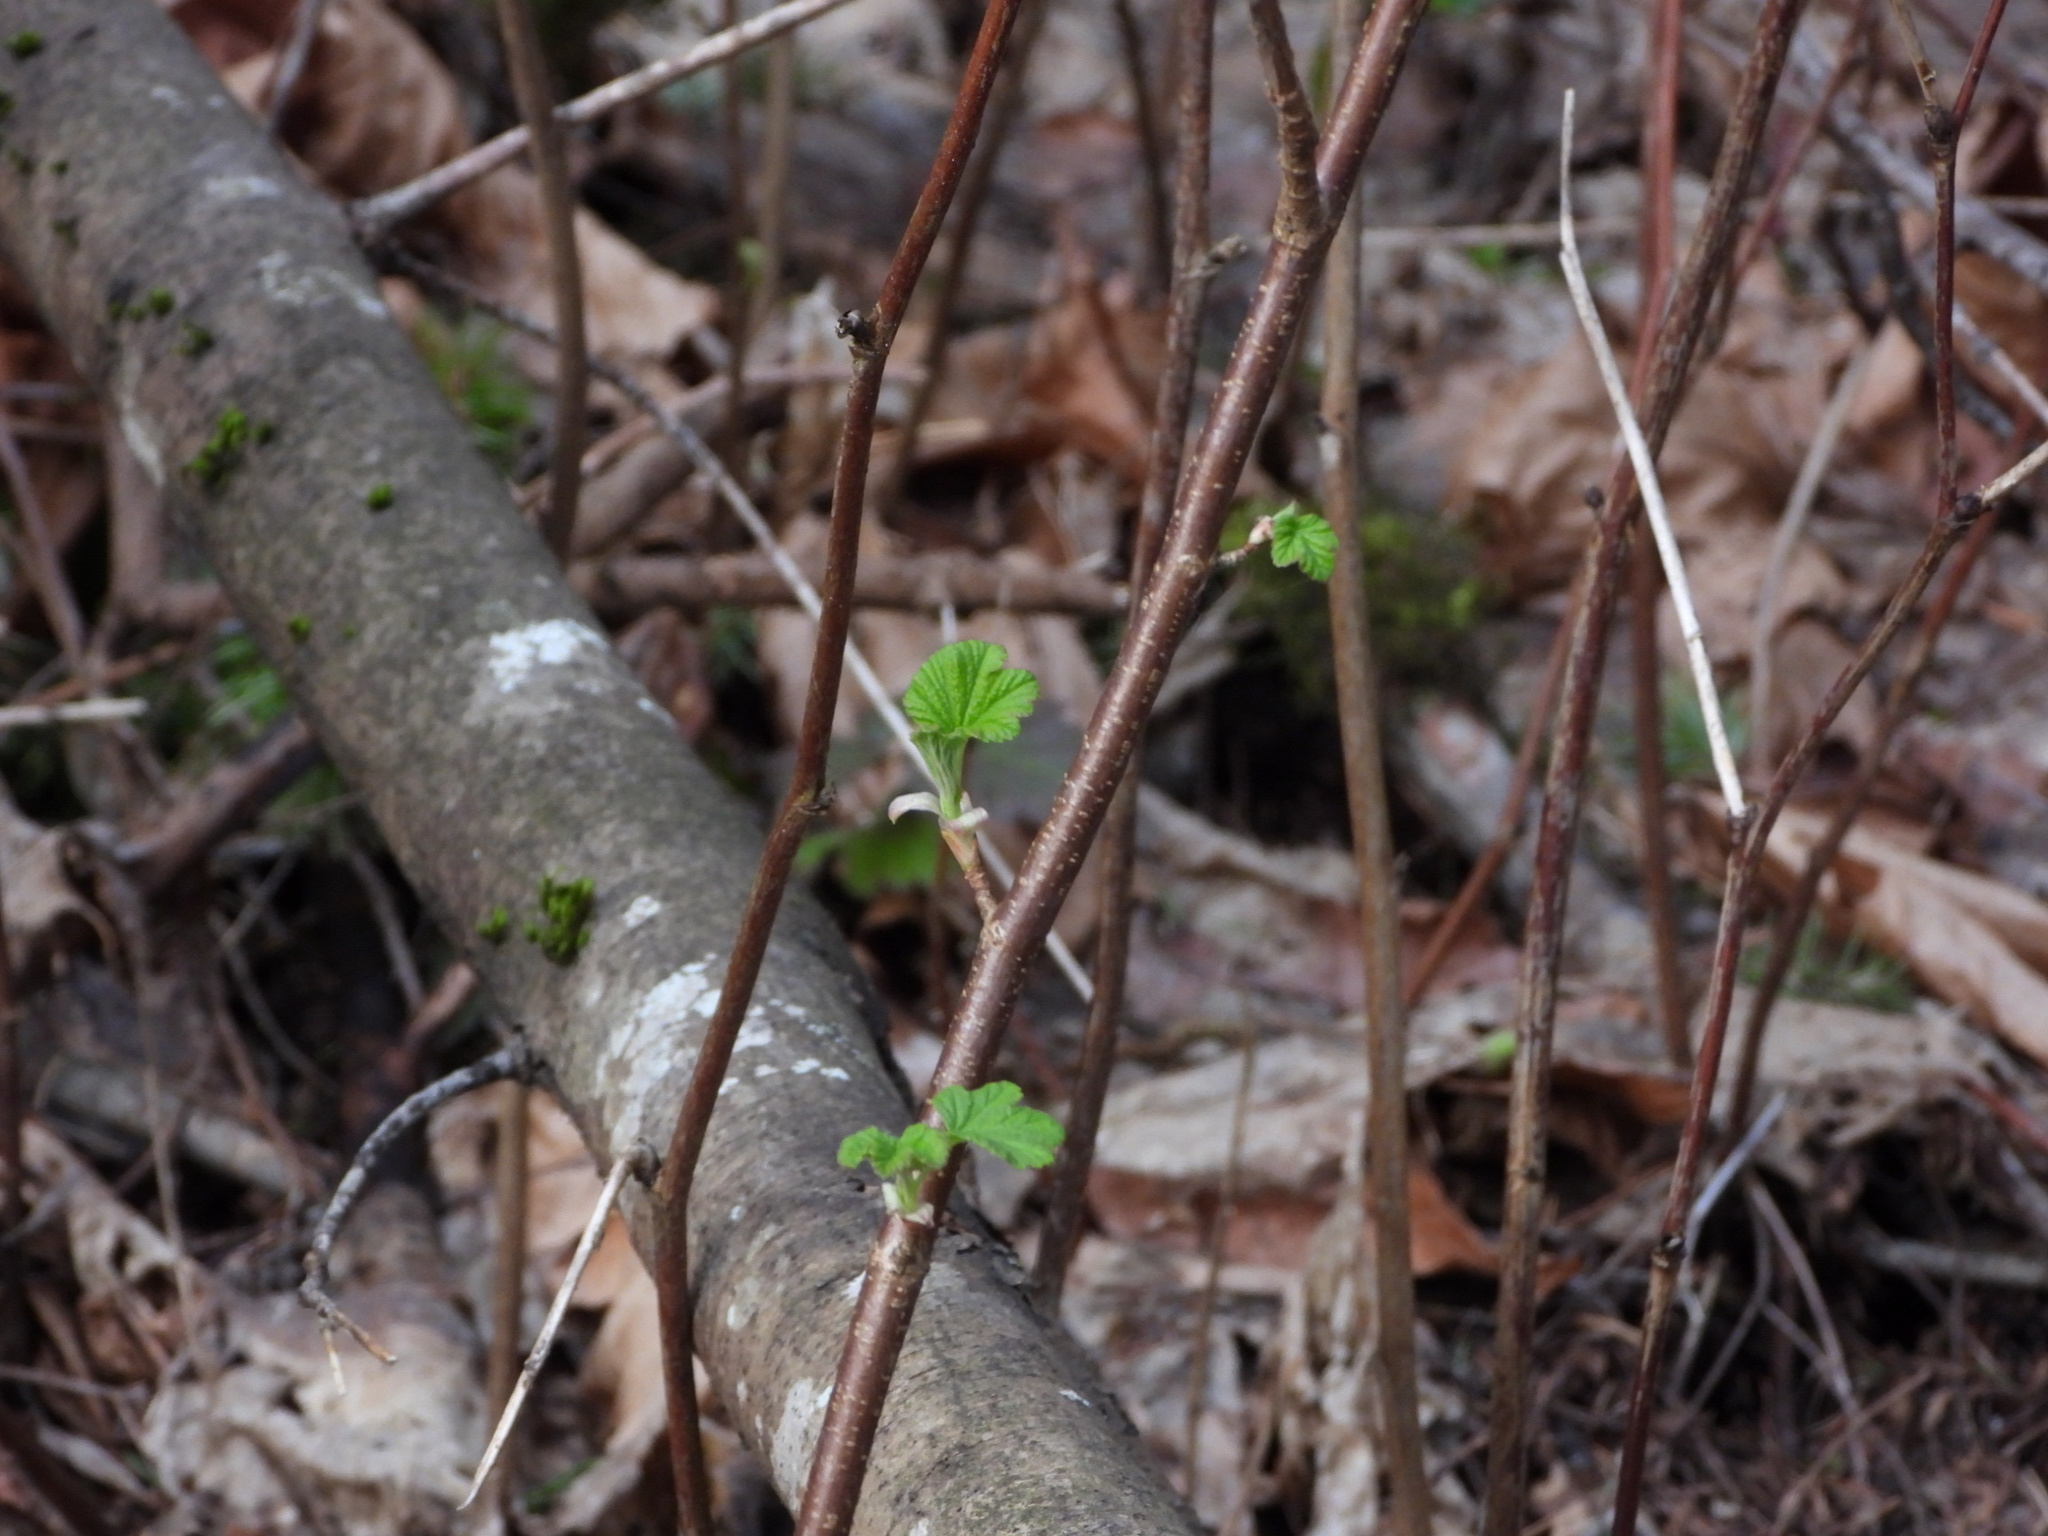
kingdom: Plantae
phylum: Tracheophyta
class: Magnoliopsida
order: Saxifragales
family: Grossulariaceae
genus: Ribes
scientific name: Ribes sanguineum
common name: Flowering currant
